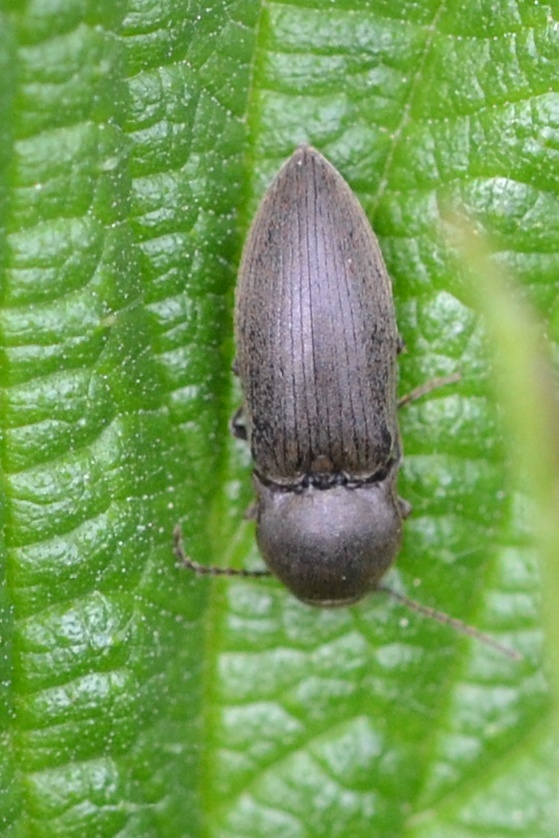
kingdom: Animalia
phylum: Arthropoda
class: Insecta
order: Coleoptera
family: Elateridae
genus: Agriotes
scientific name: Agriotes obscurus
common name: Dusky wireworm
